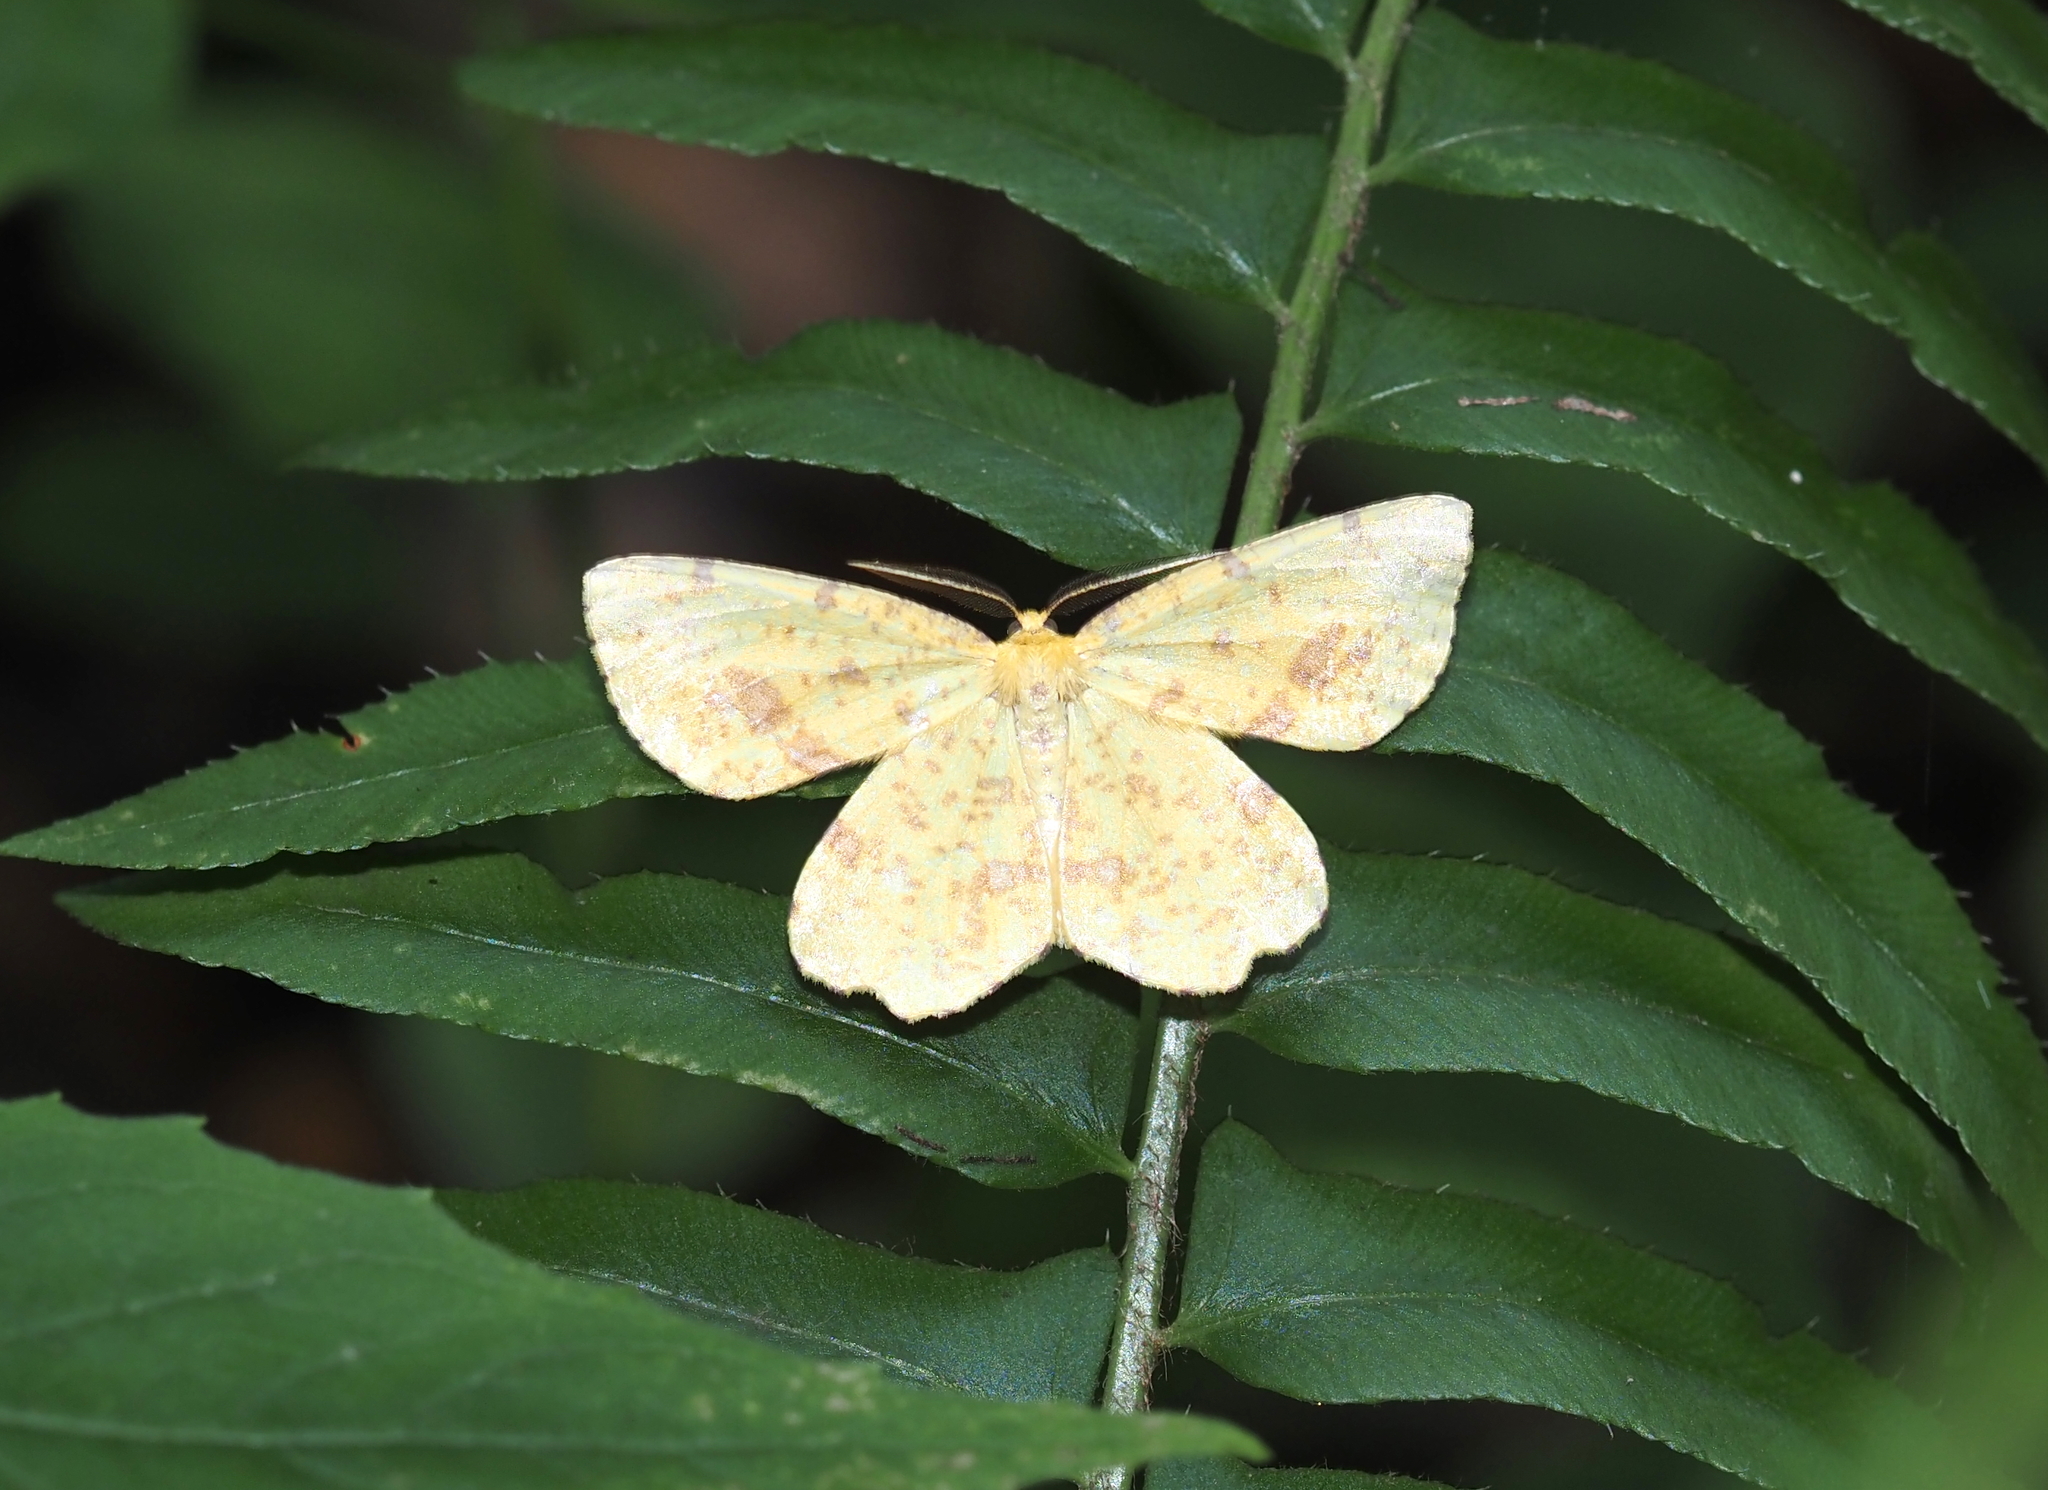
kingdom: Animalia
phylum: Arthropoda
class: Insecta
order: Lepidoptera
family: Geometridae
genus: Xanthotype
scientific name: Xanthotype
